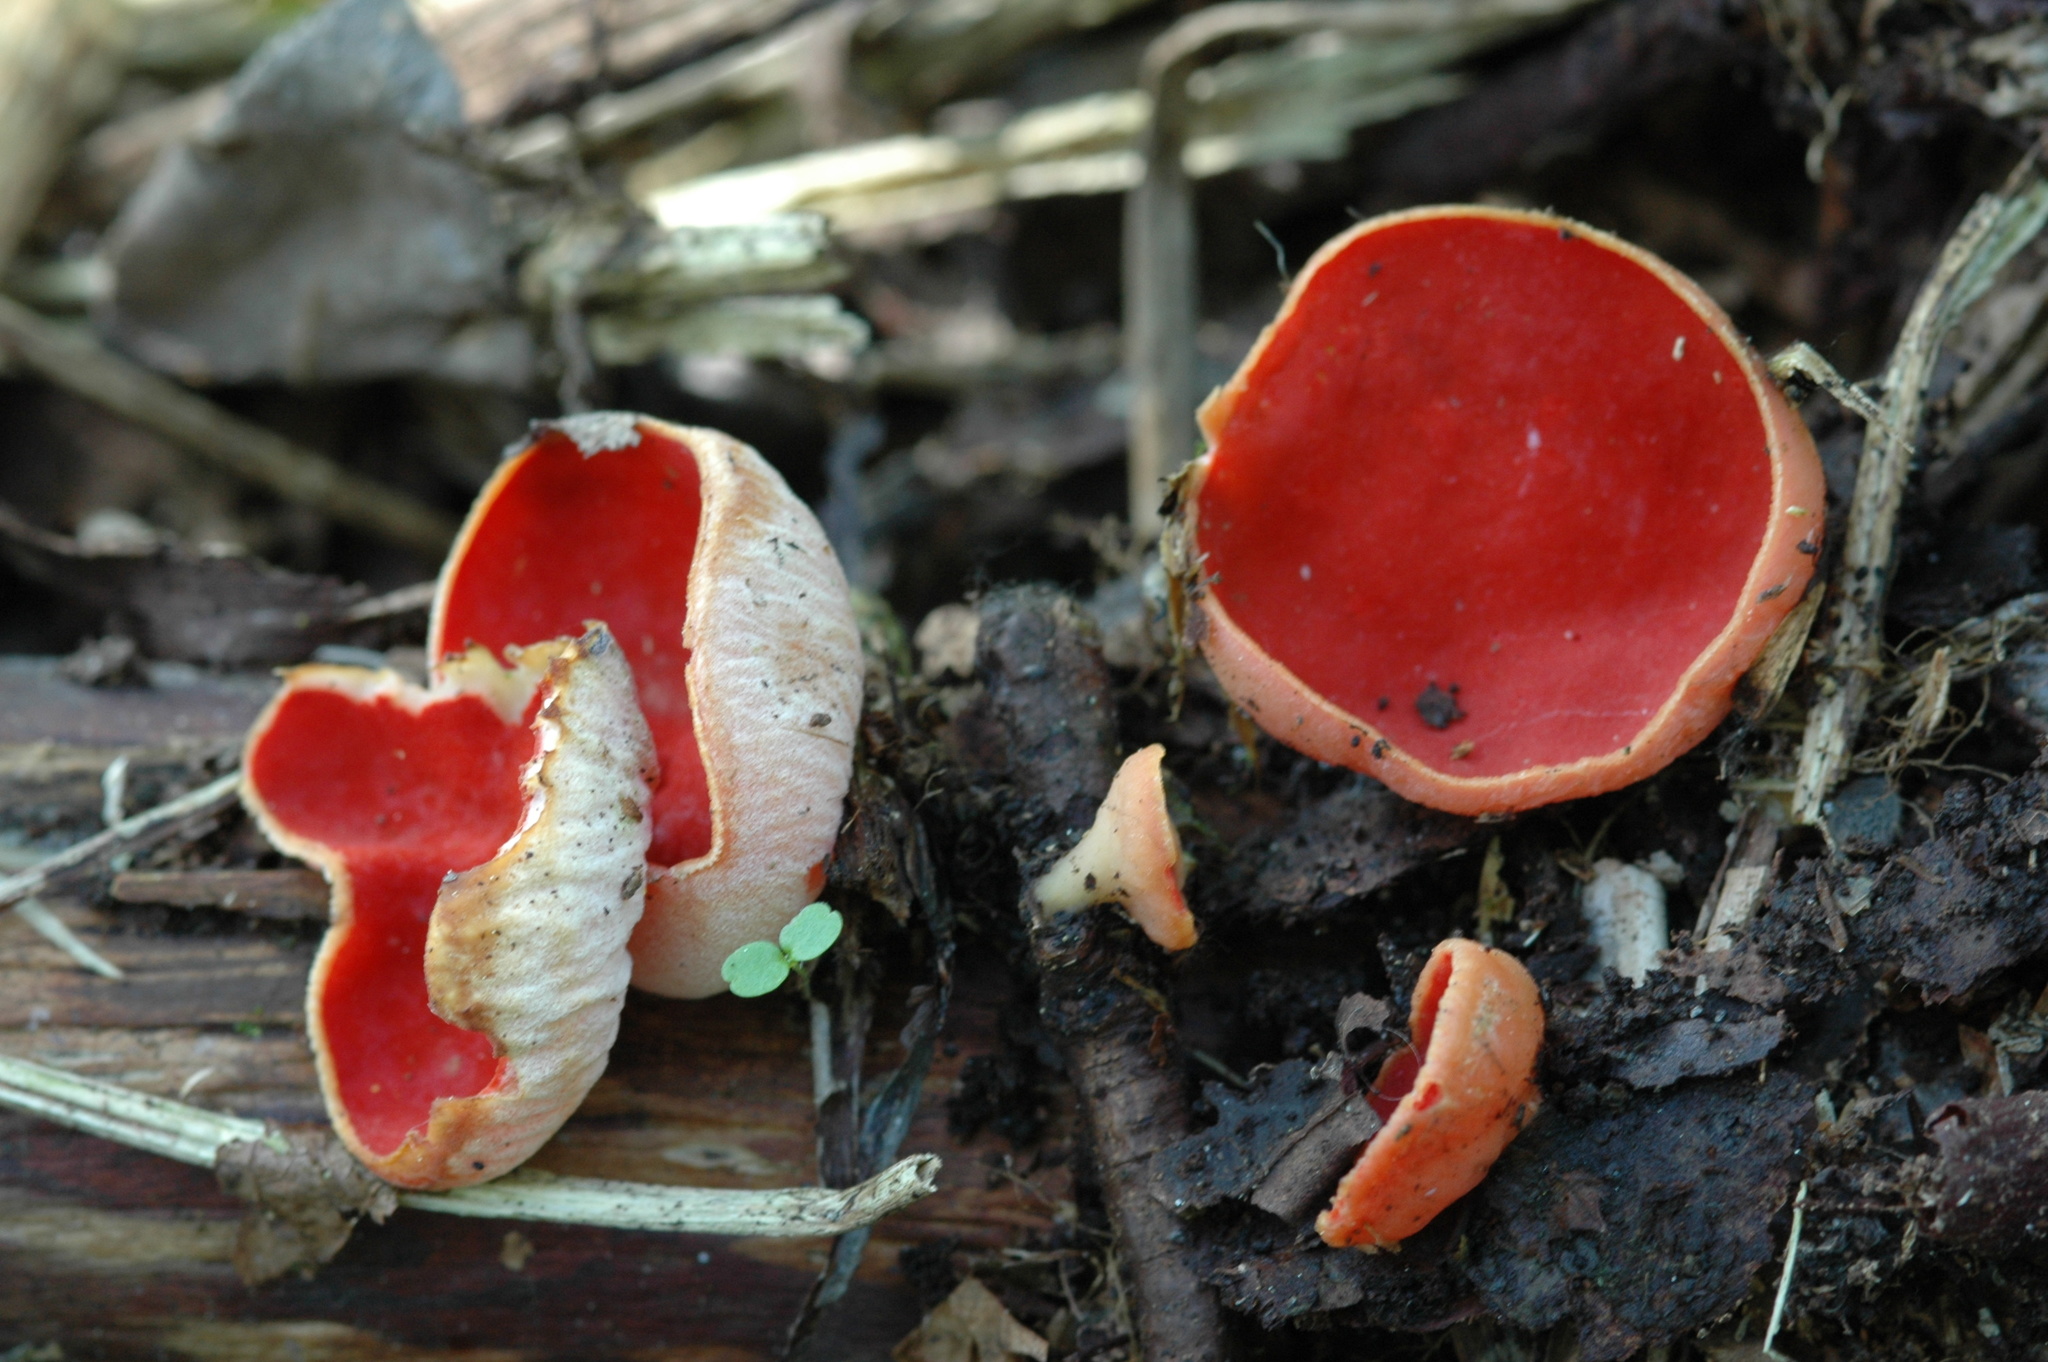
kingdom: Fungi
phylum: Ascomycota
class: Pezizomycetes
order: Pezizales
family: Sarcoscyphaceae
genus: Sarcoscypha
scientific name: Sarcoscypha austriaca
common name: Scarlet elfcup
